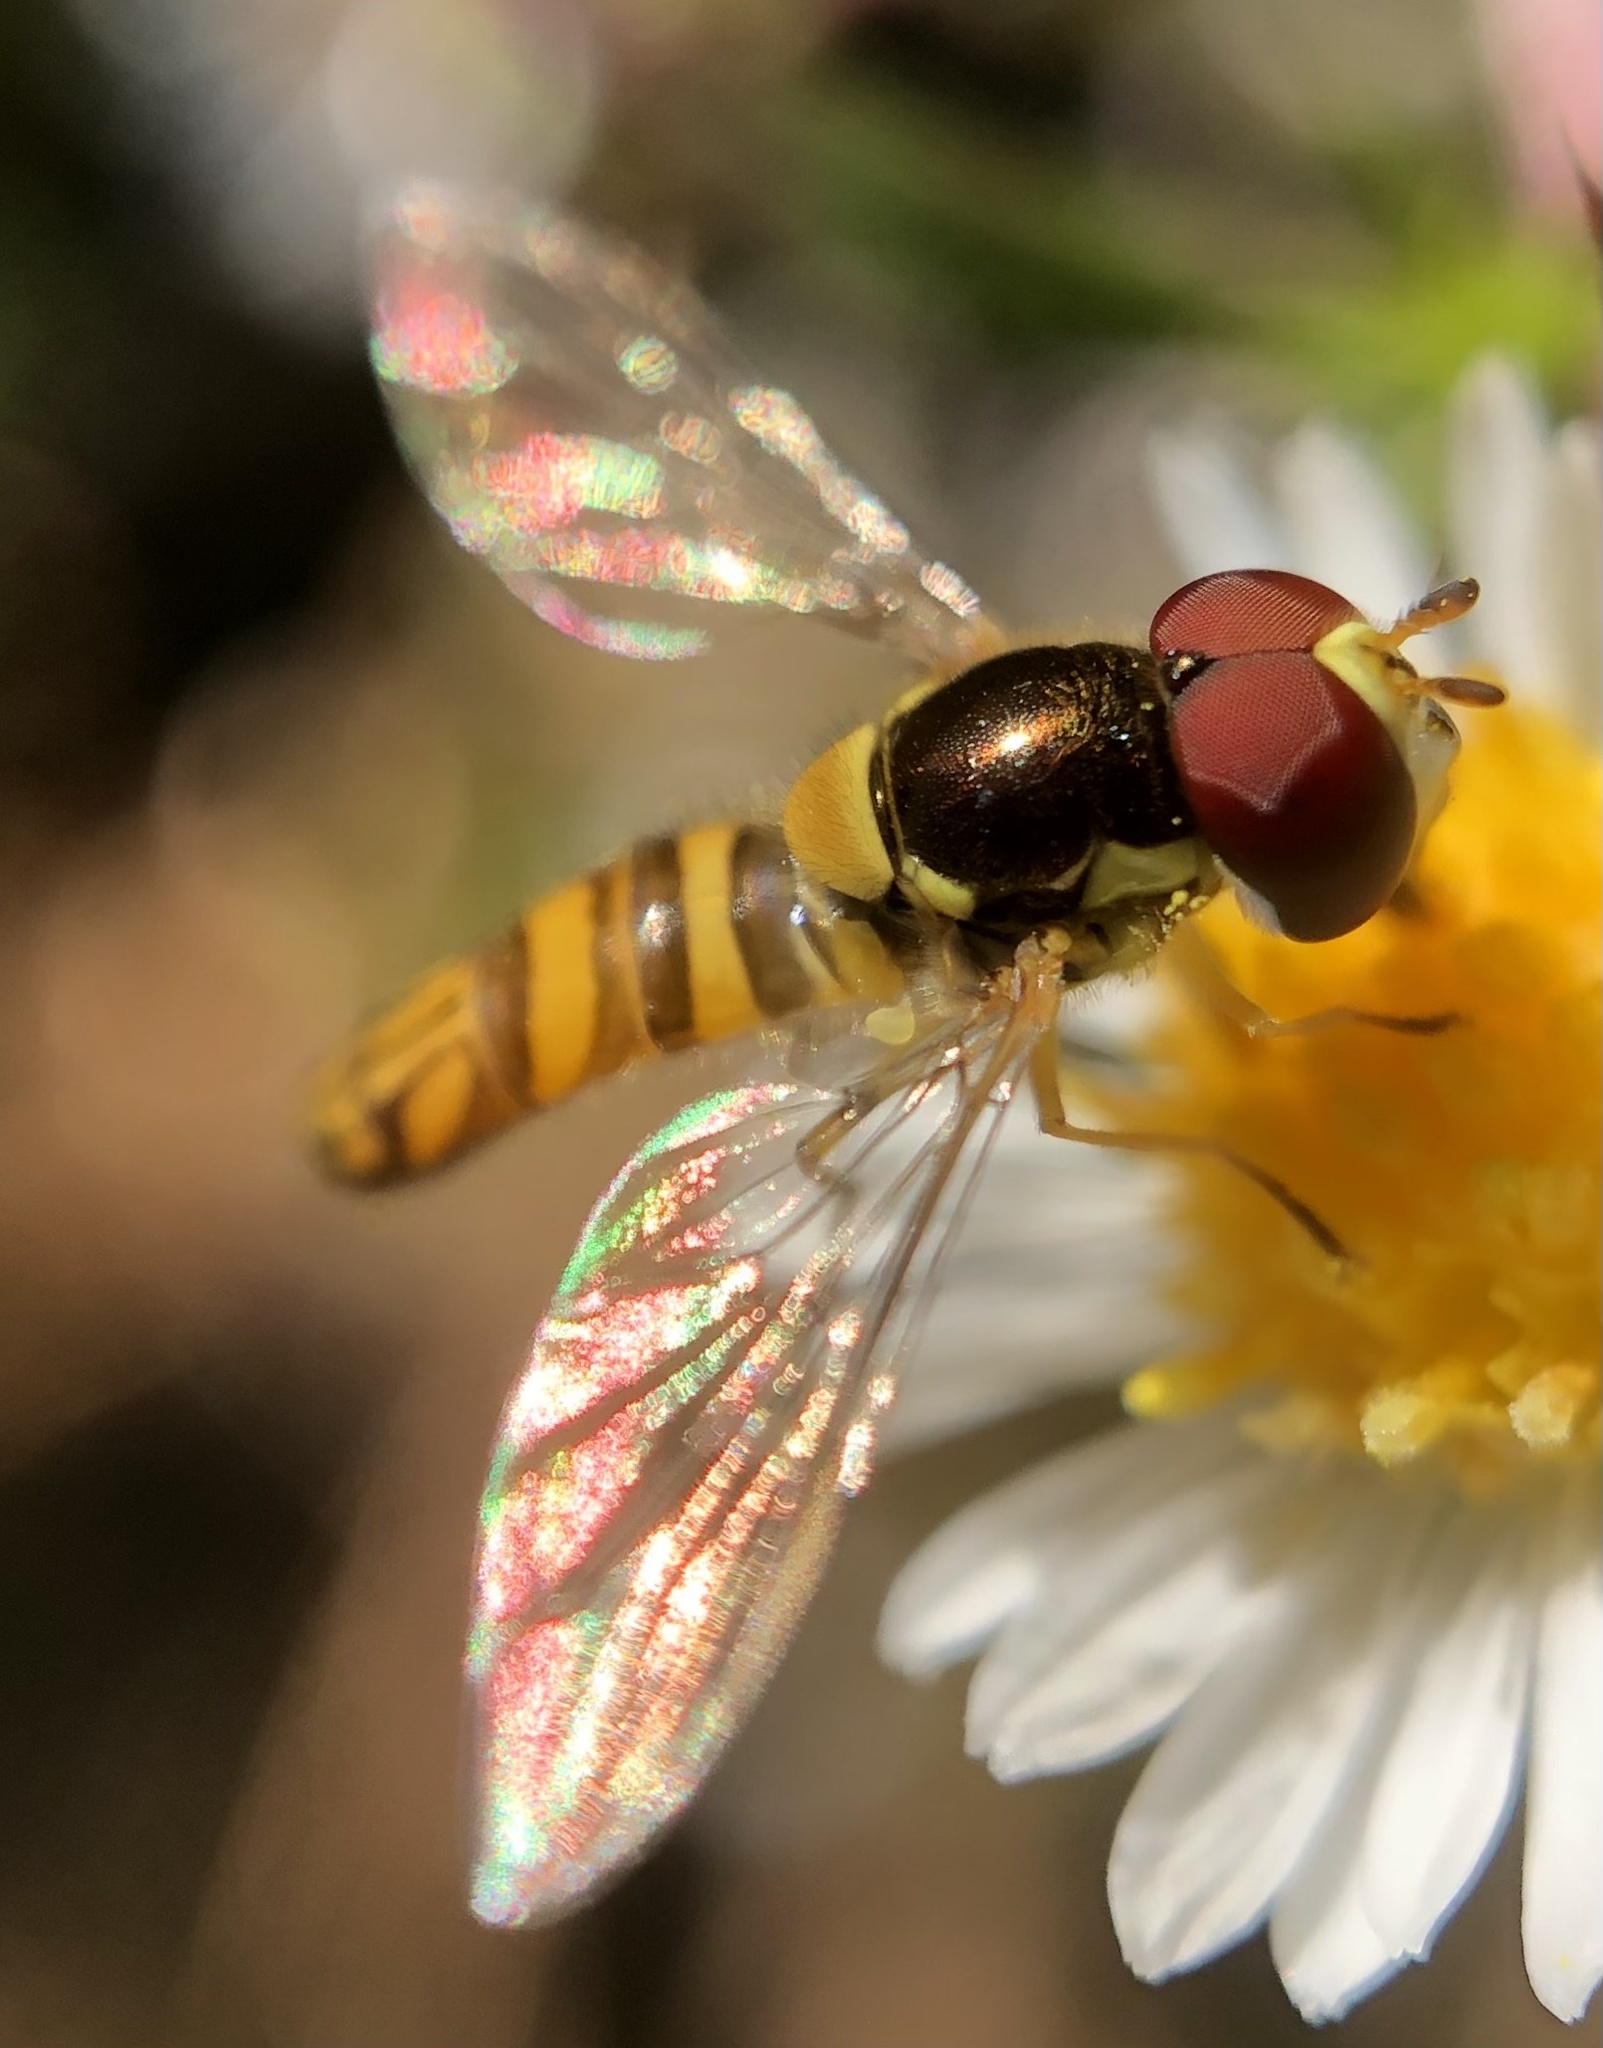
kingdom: Animalia
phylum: Arthropoda
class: Insecta
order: Diptera
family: Syrphidae
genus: Allograpta
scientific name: Allograpta obliqua
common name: Common oblique syrphid
